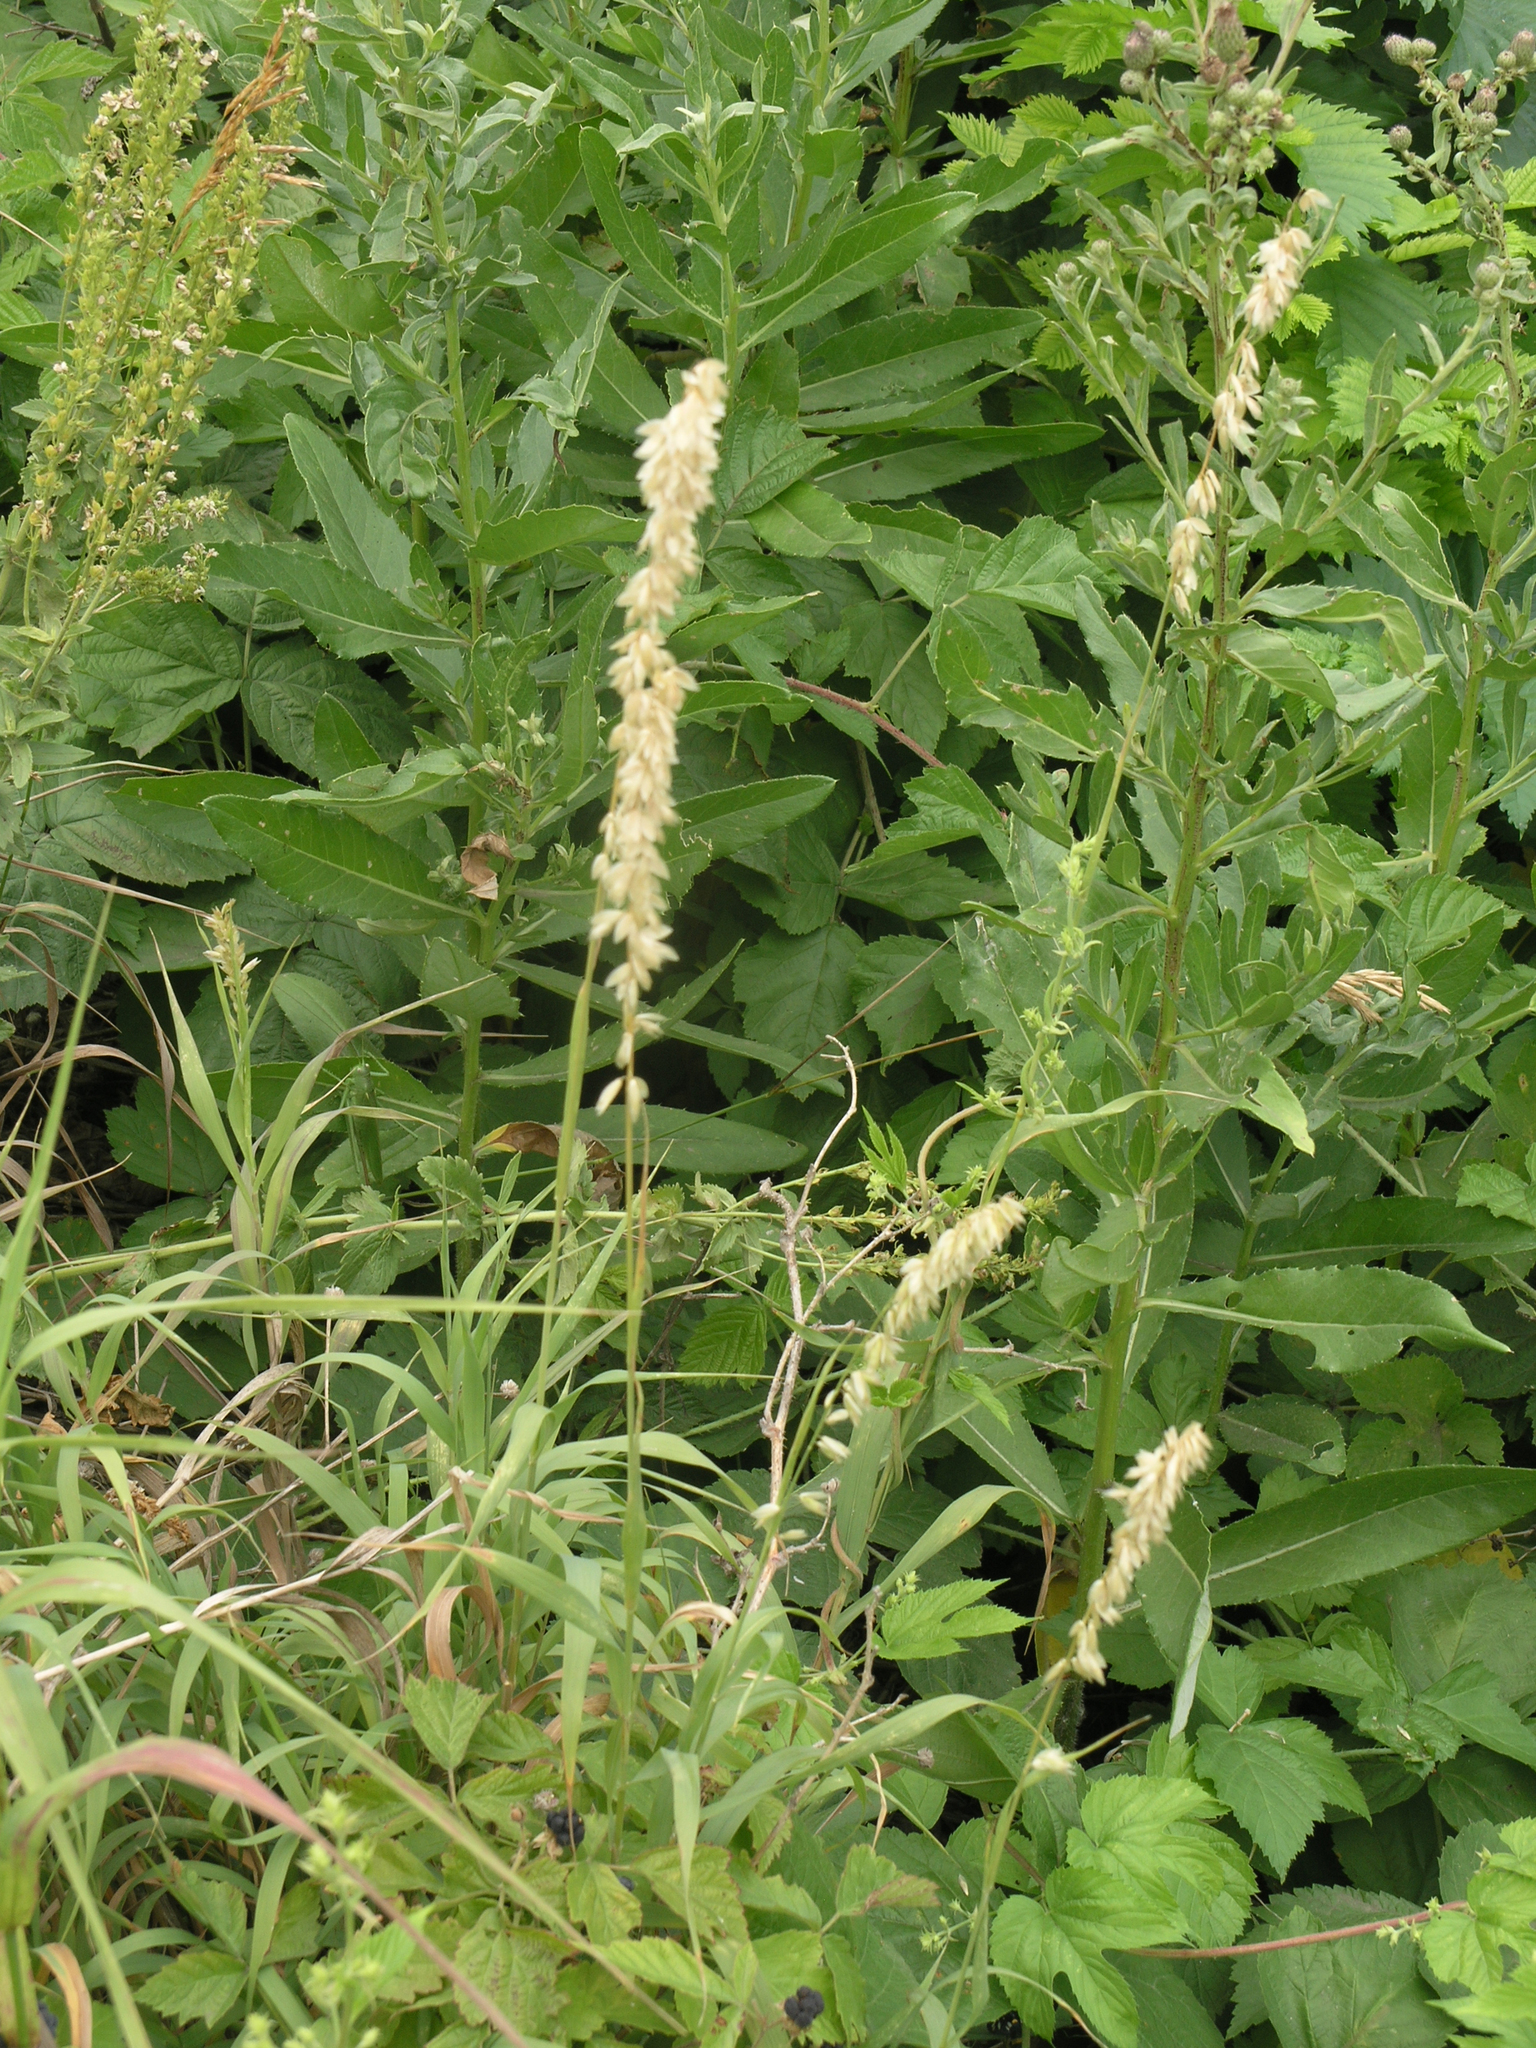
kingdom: Plantae
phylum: Tracheophyta
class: Liliopsida
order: Poales
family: Poaceae
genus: Melica
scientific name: Melica altissima
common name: Siberian melicgrass
